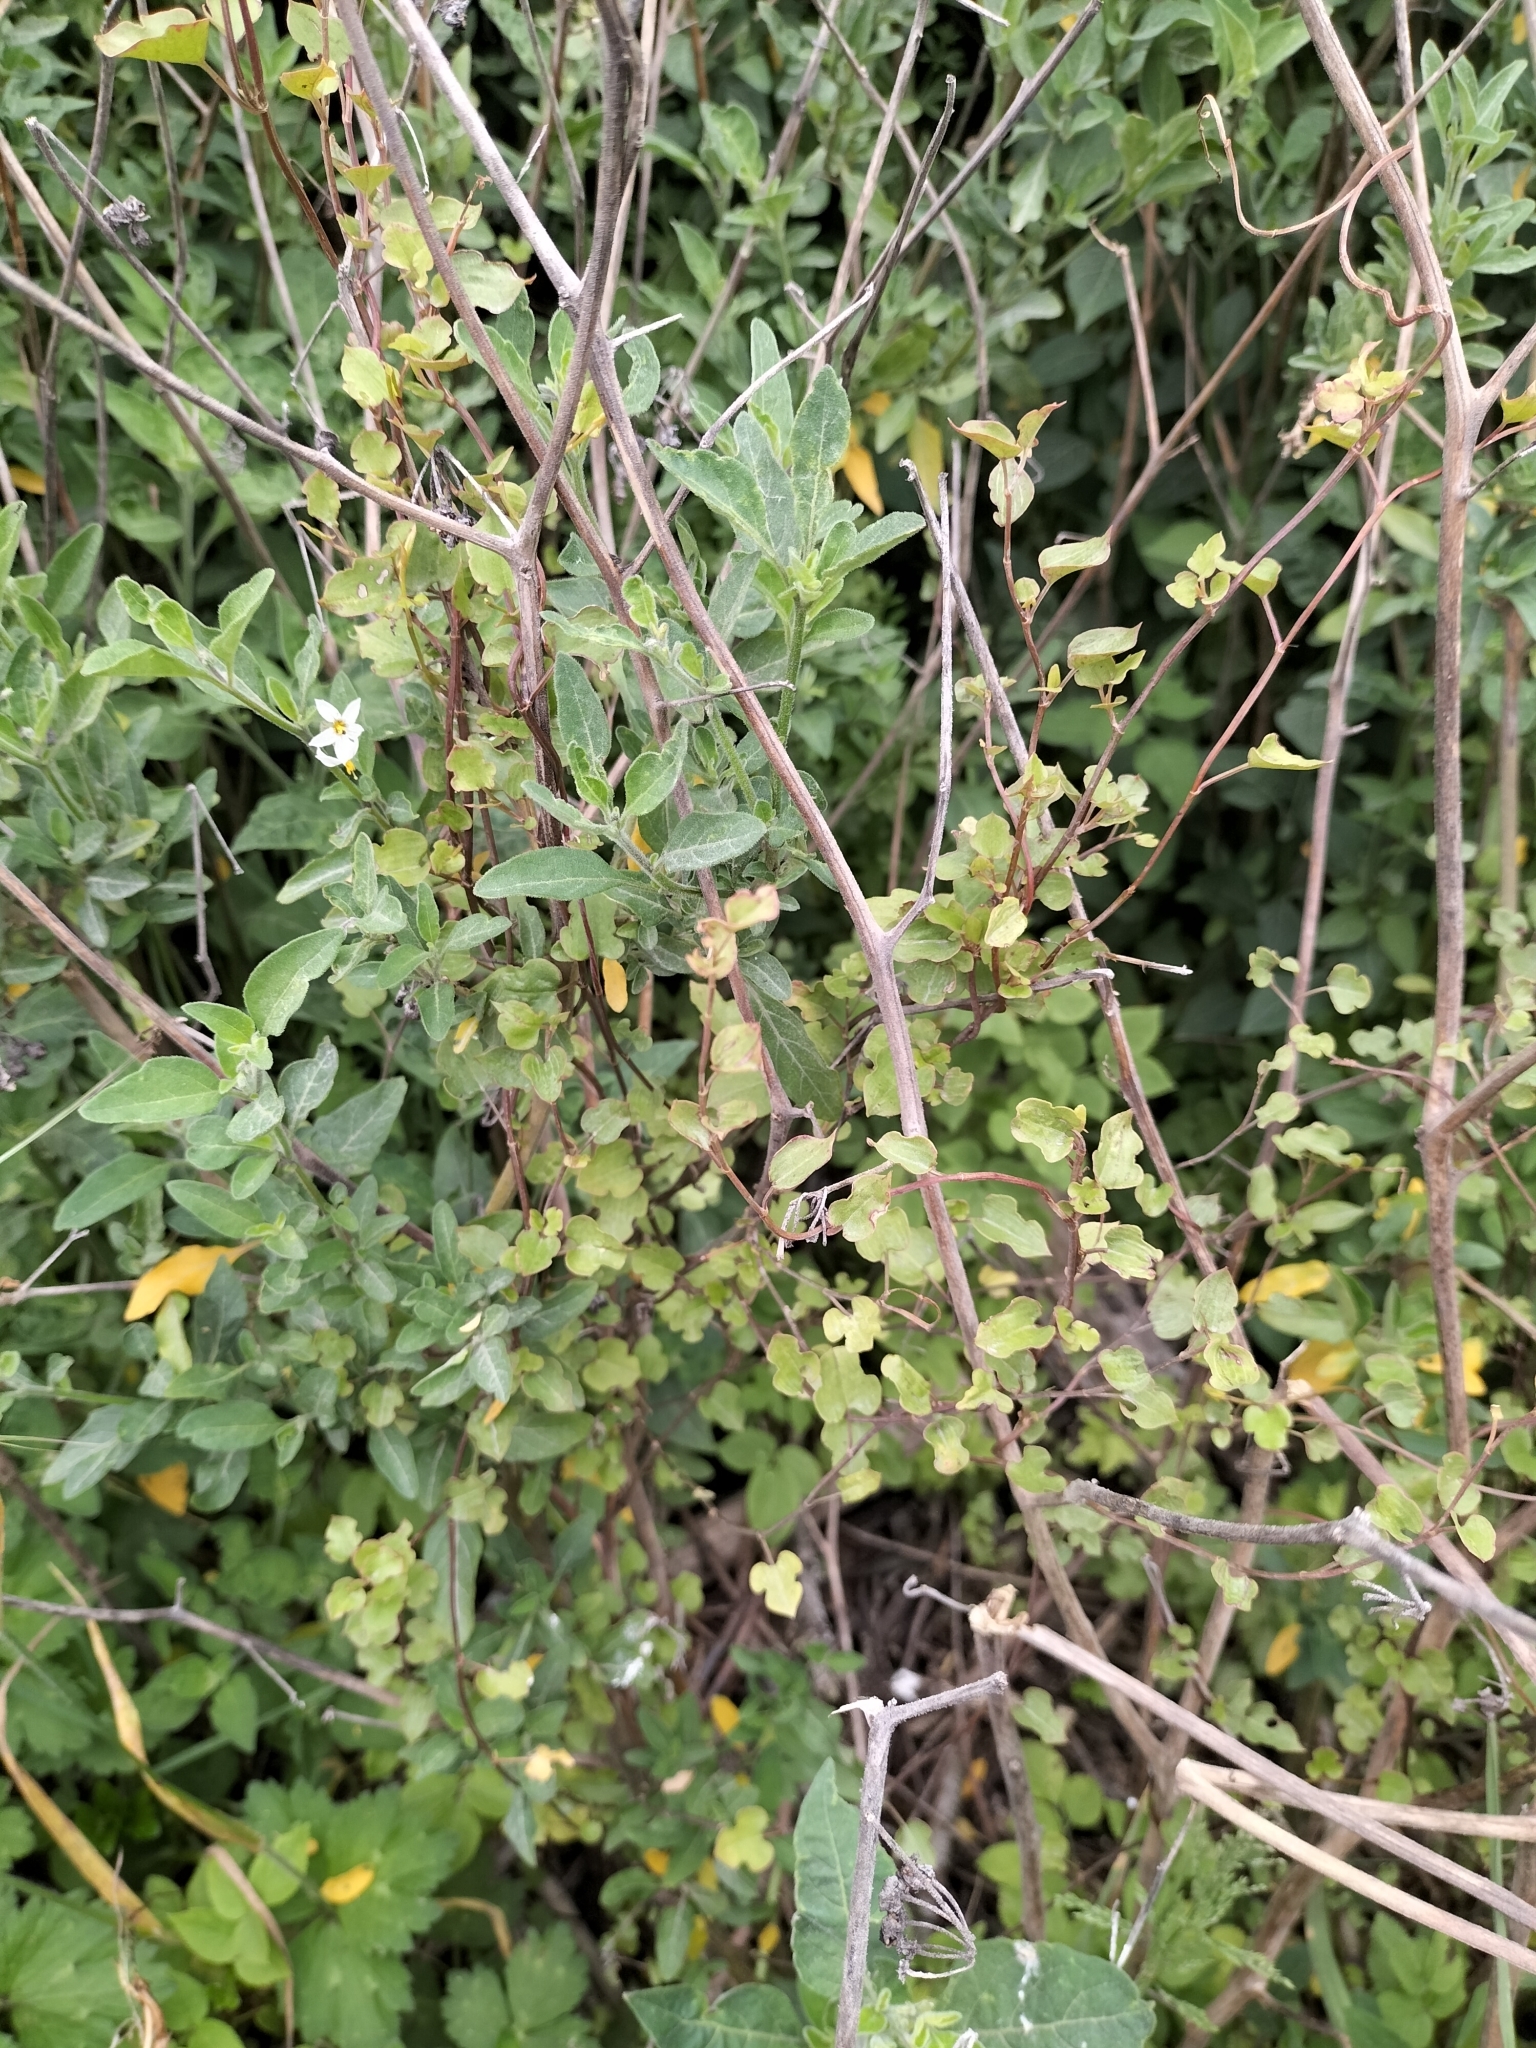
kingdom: Plantae
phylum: Tracheophyta
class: Magnoliopsida
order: Caryophyllales
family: Polygonaceae
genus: Muehlenbeckia
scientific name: Muehlenbeckia australis
